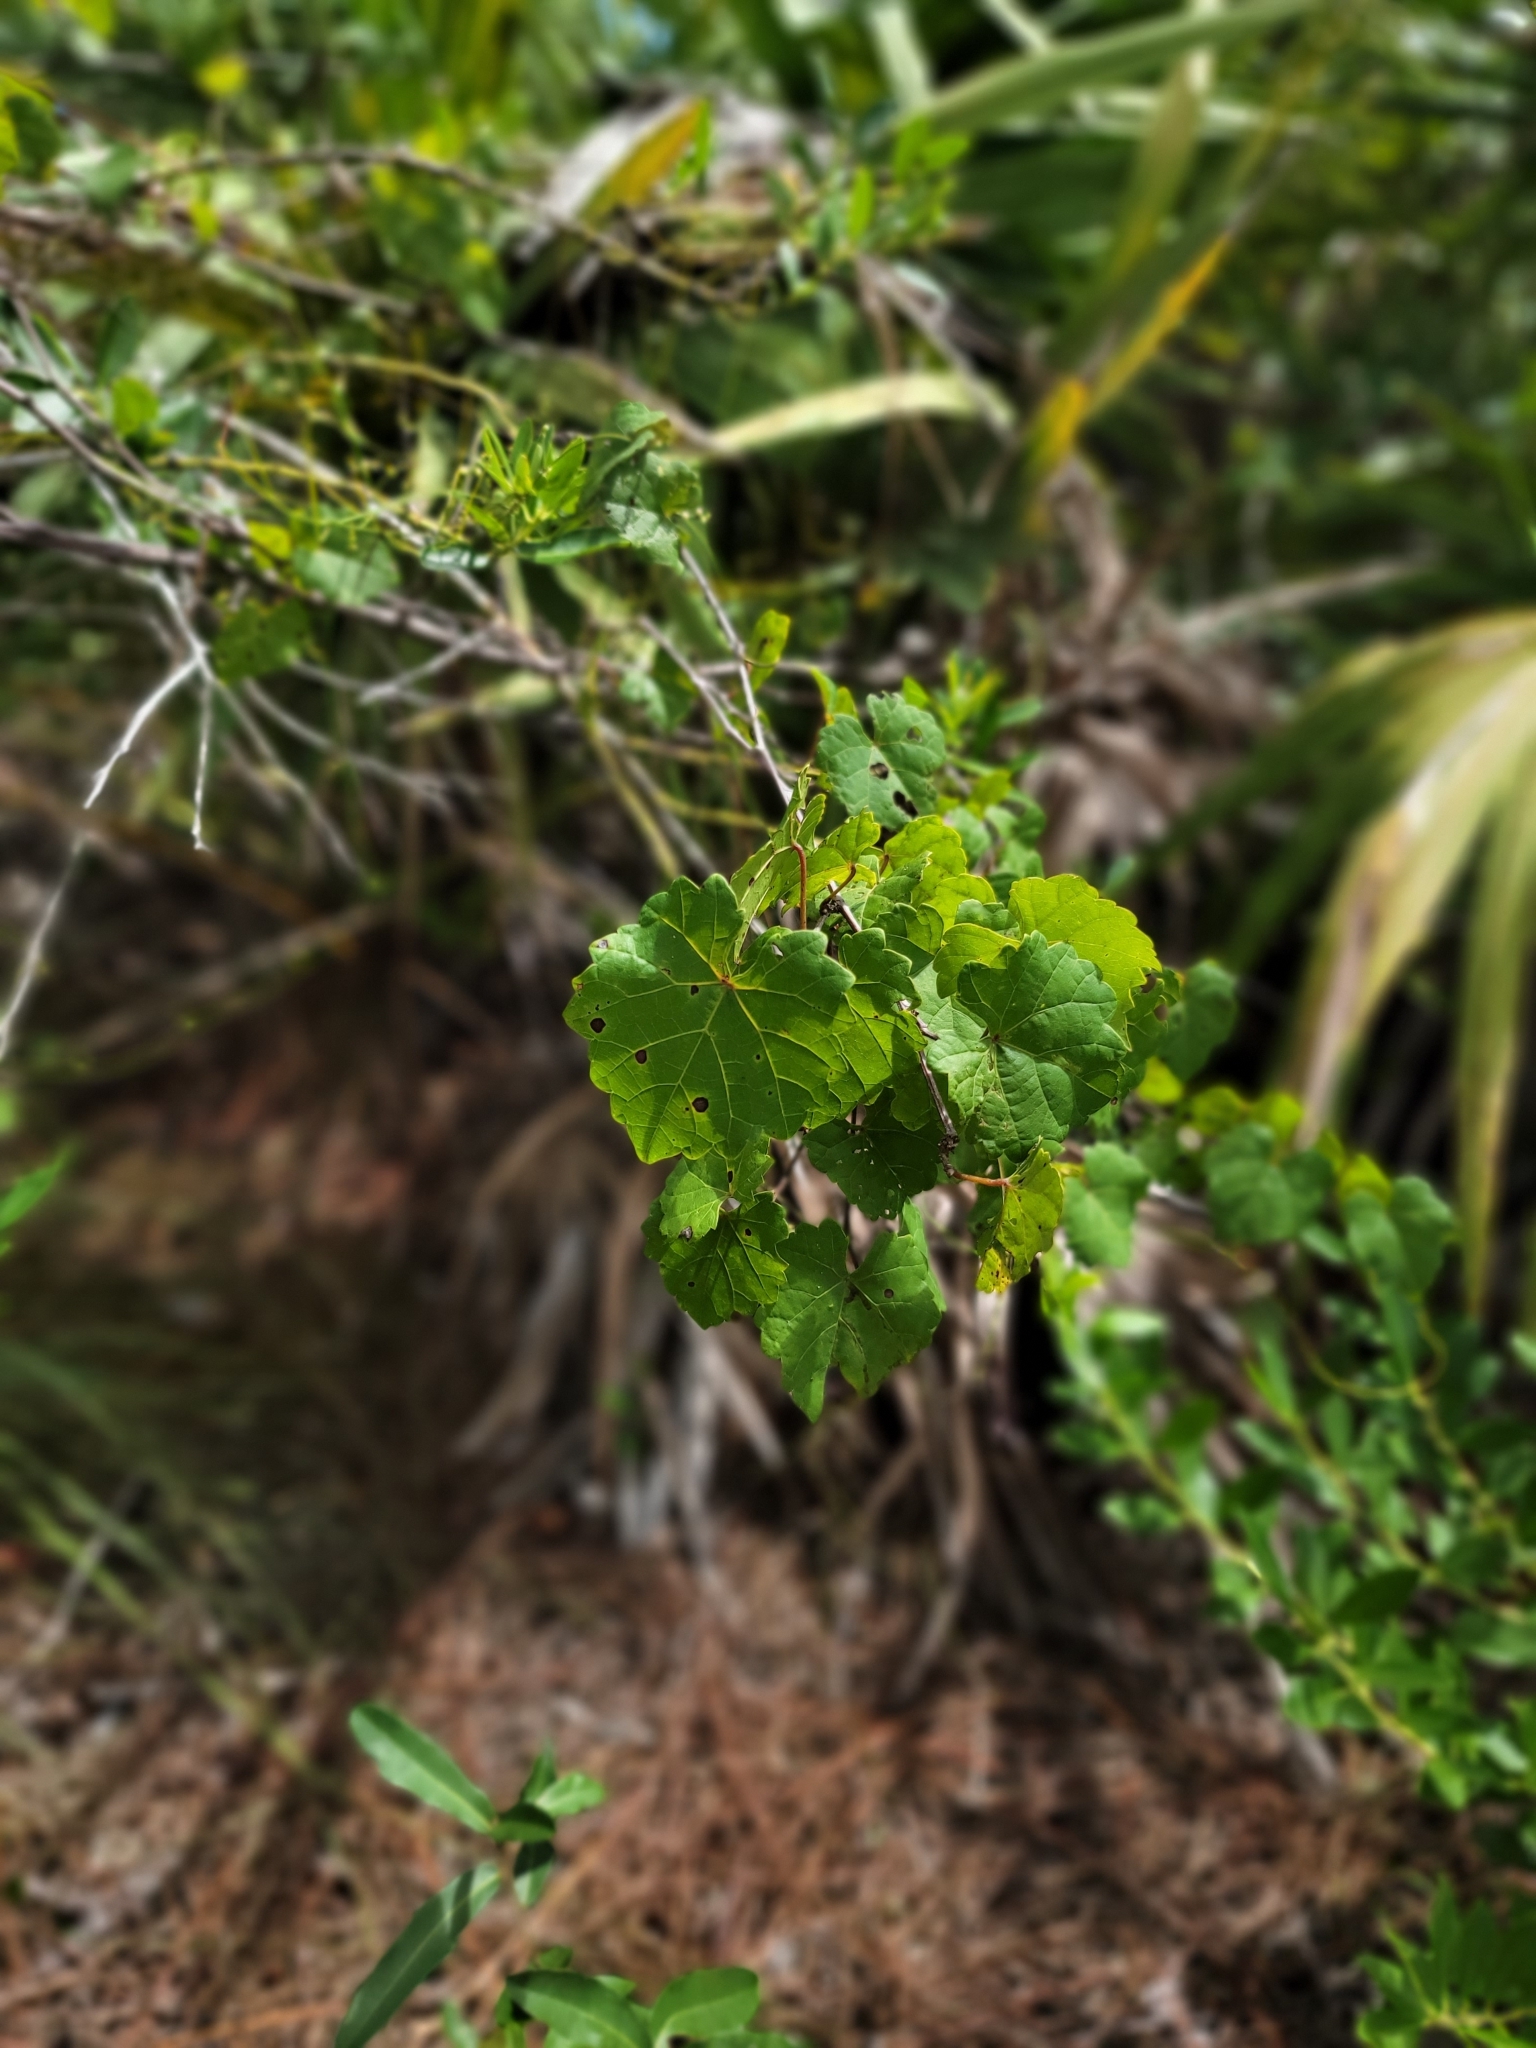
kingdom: Plantae
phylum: Tracheophyta
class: Magnoliopsida
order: Vitales
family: Vitaceae
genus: Vitis
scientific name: Vitis rotundifolia
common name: Muscadine grape
